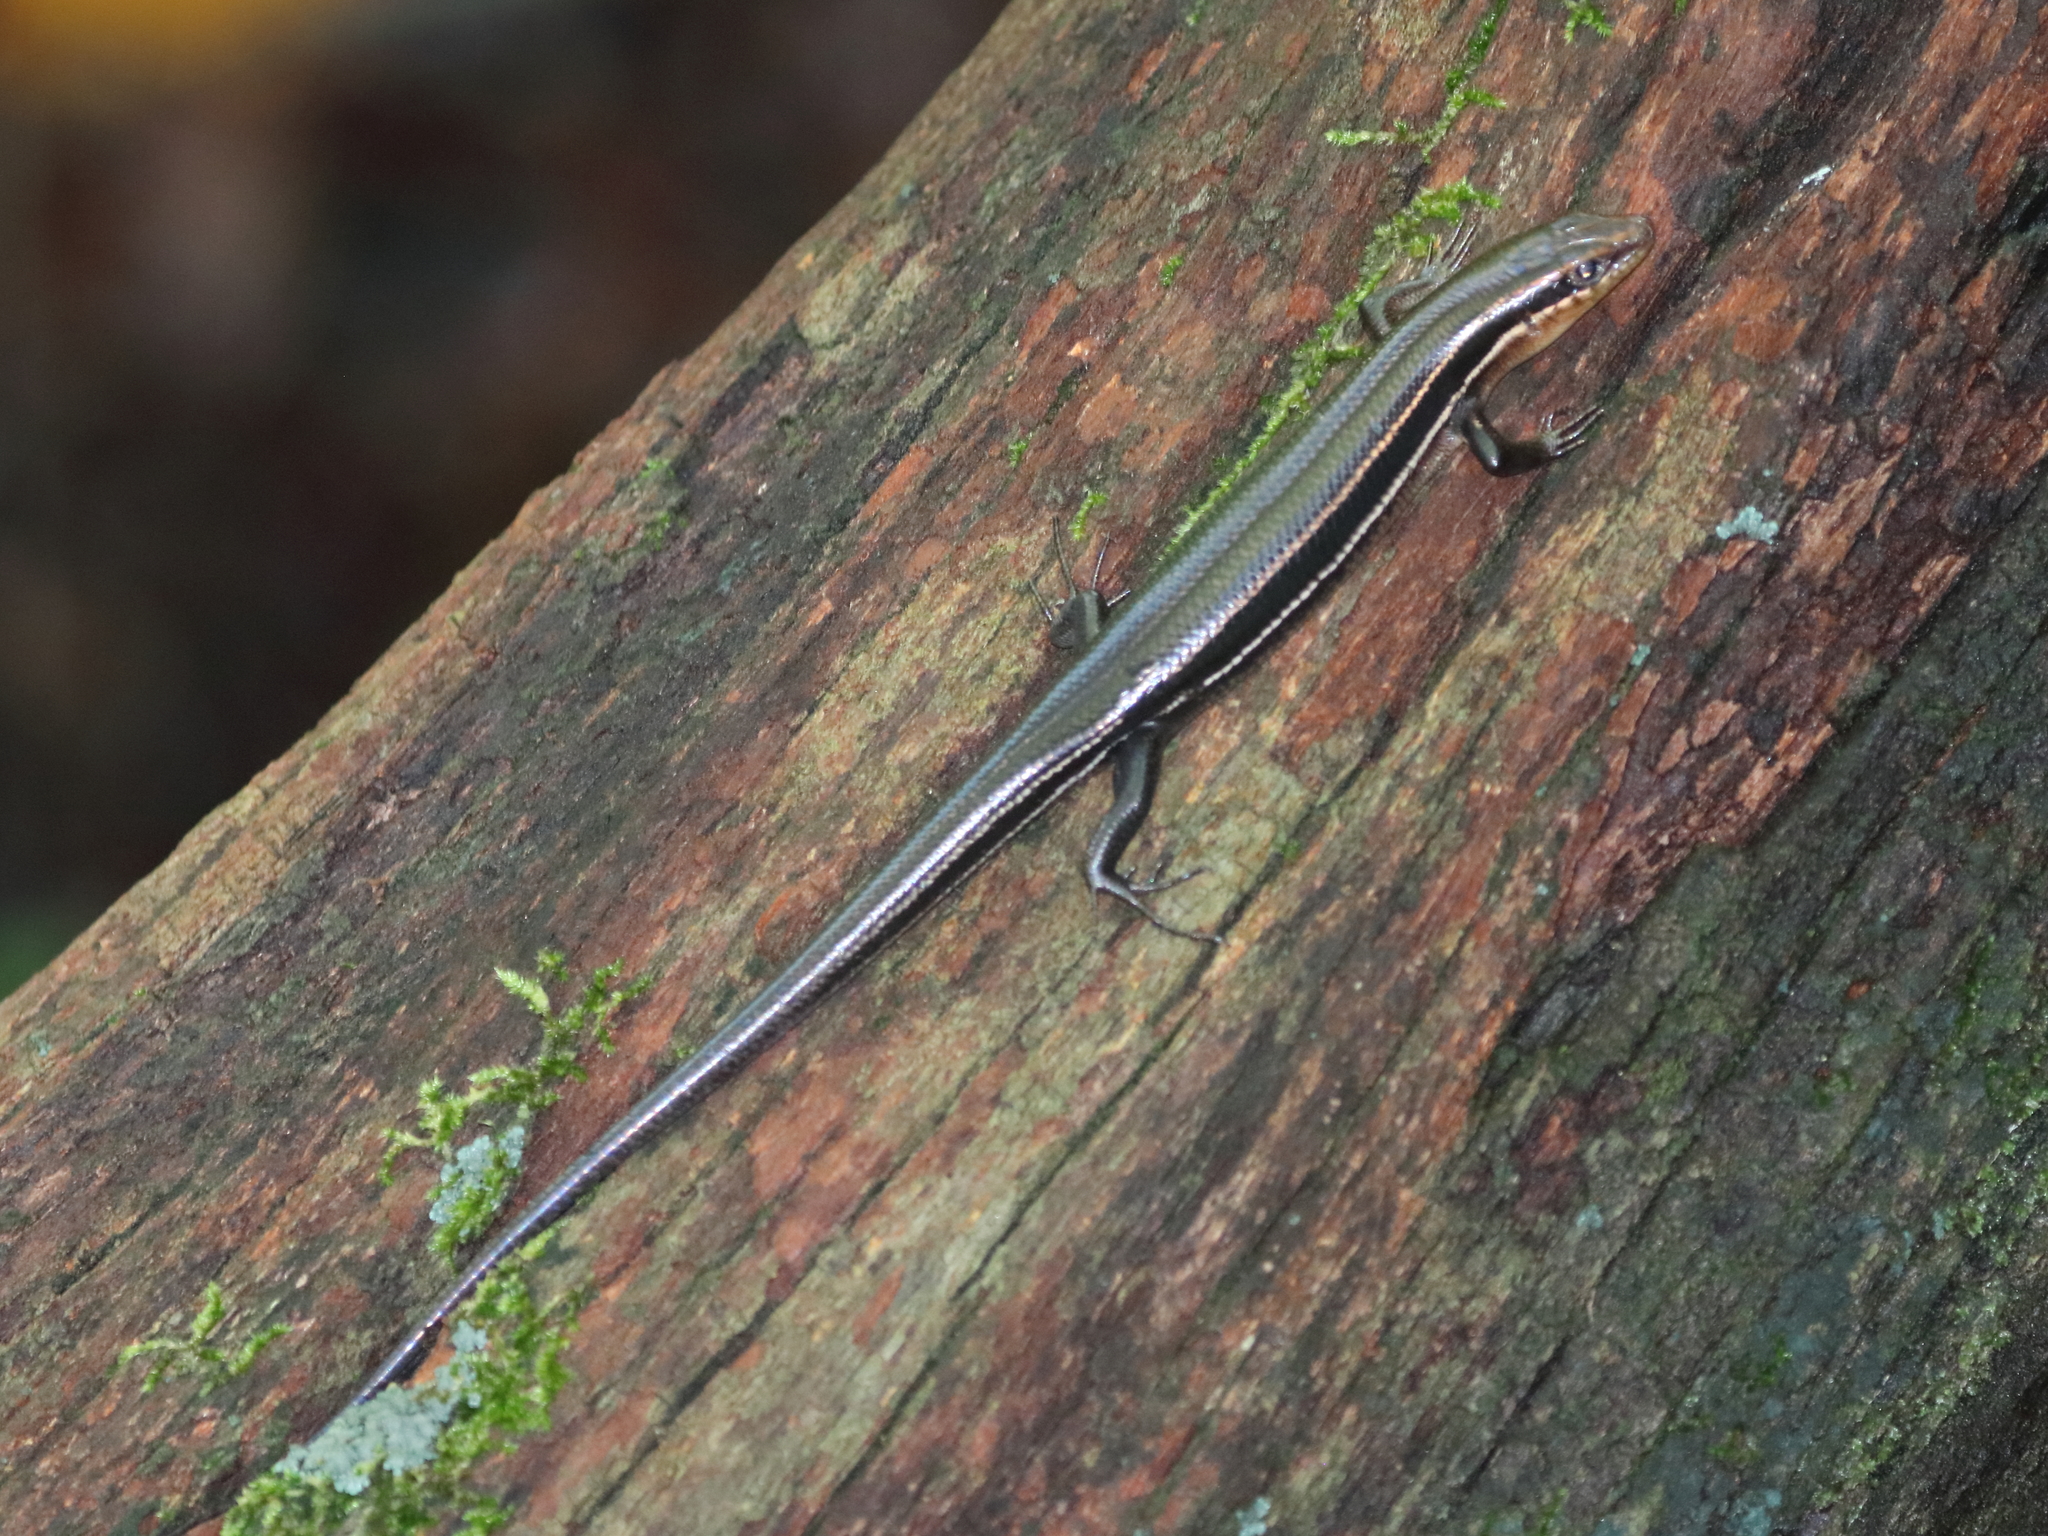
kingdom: Animalia
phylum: Chordata
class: Squamata
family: Scincidae
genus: Plestiodon
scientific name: Plestiodon inexpectatus
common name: Southeastern five-lined skink
